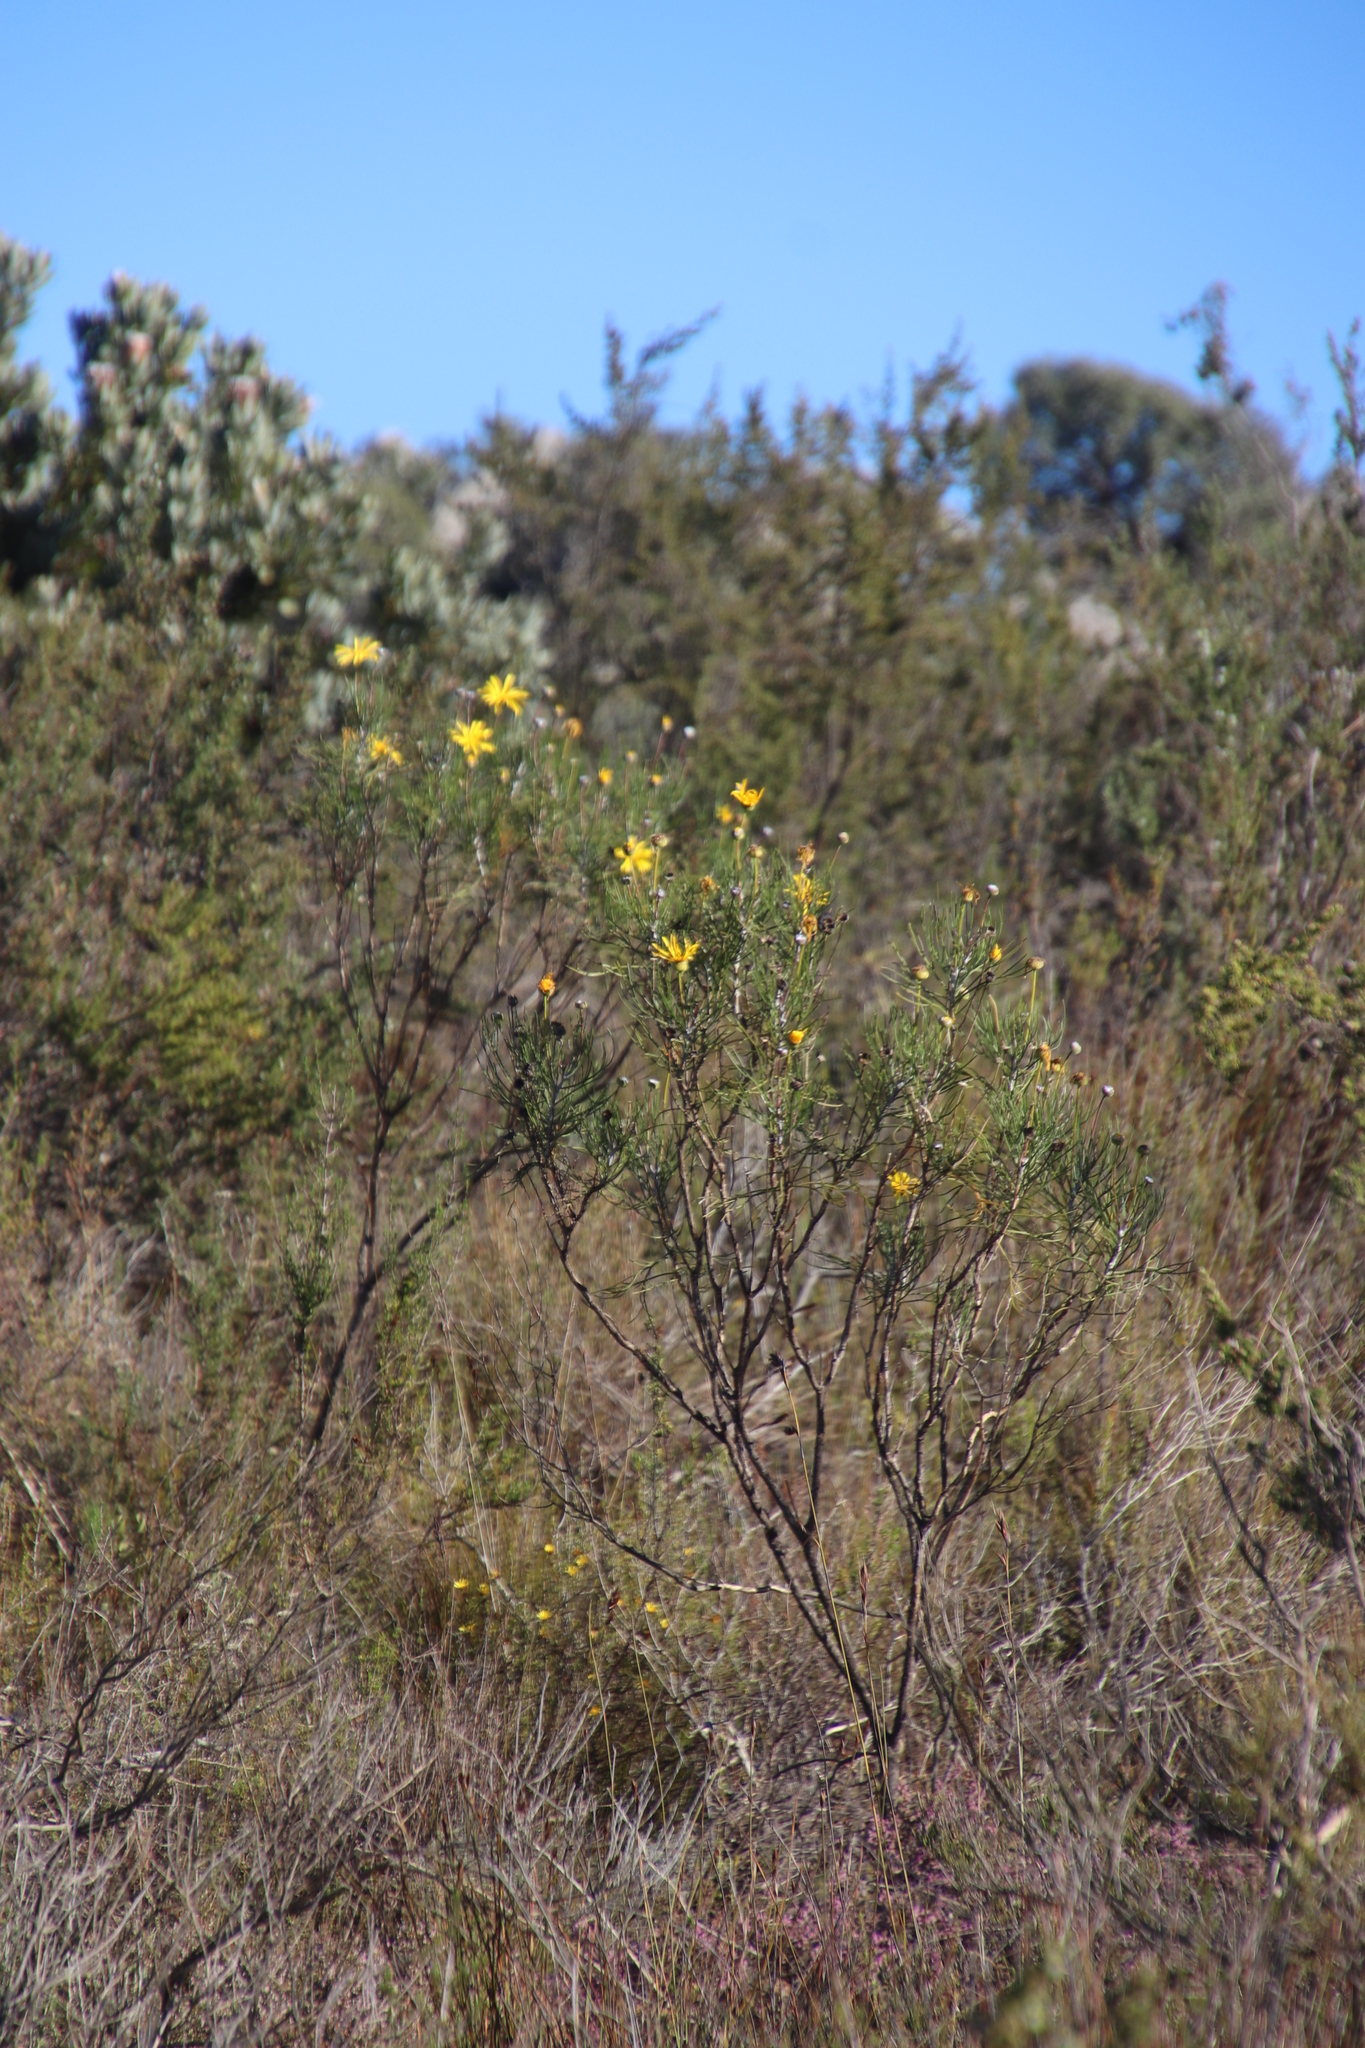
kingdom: Plantae
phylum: Tracheophyta
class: Magnoliopsida
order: Asterales
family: Asteraceae
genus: Euryops
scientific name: Euryops speciosissimus
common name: Clanwilliam daisy
